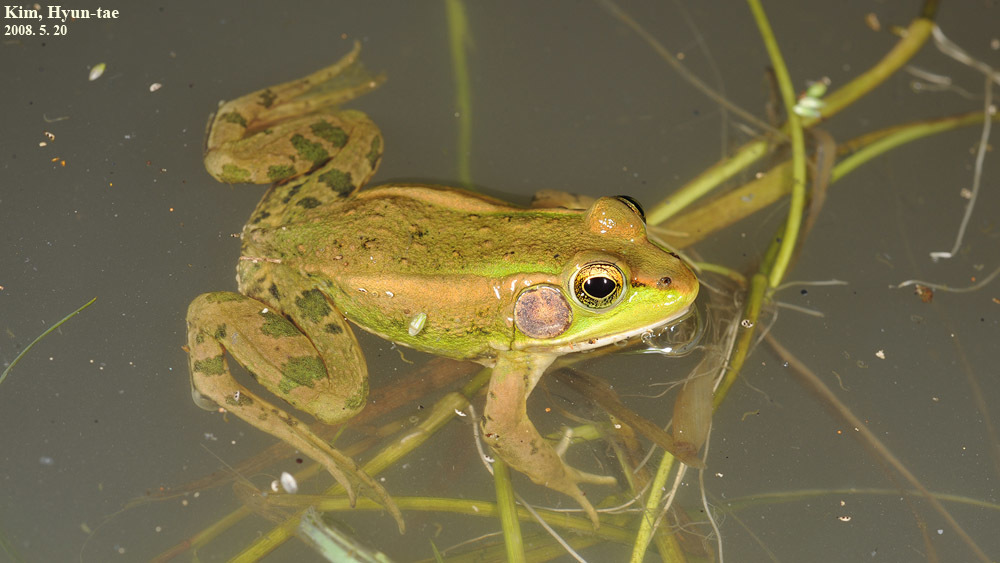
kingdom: Animalia
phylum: Chordata
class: Amphibia
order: Anura
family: Ranidae
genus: Pelophylax
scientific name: Pelophylax chosenicus
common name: Gold-spotted pond frog
